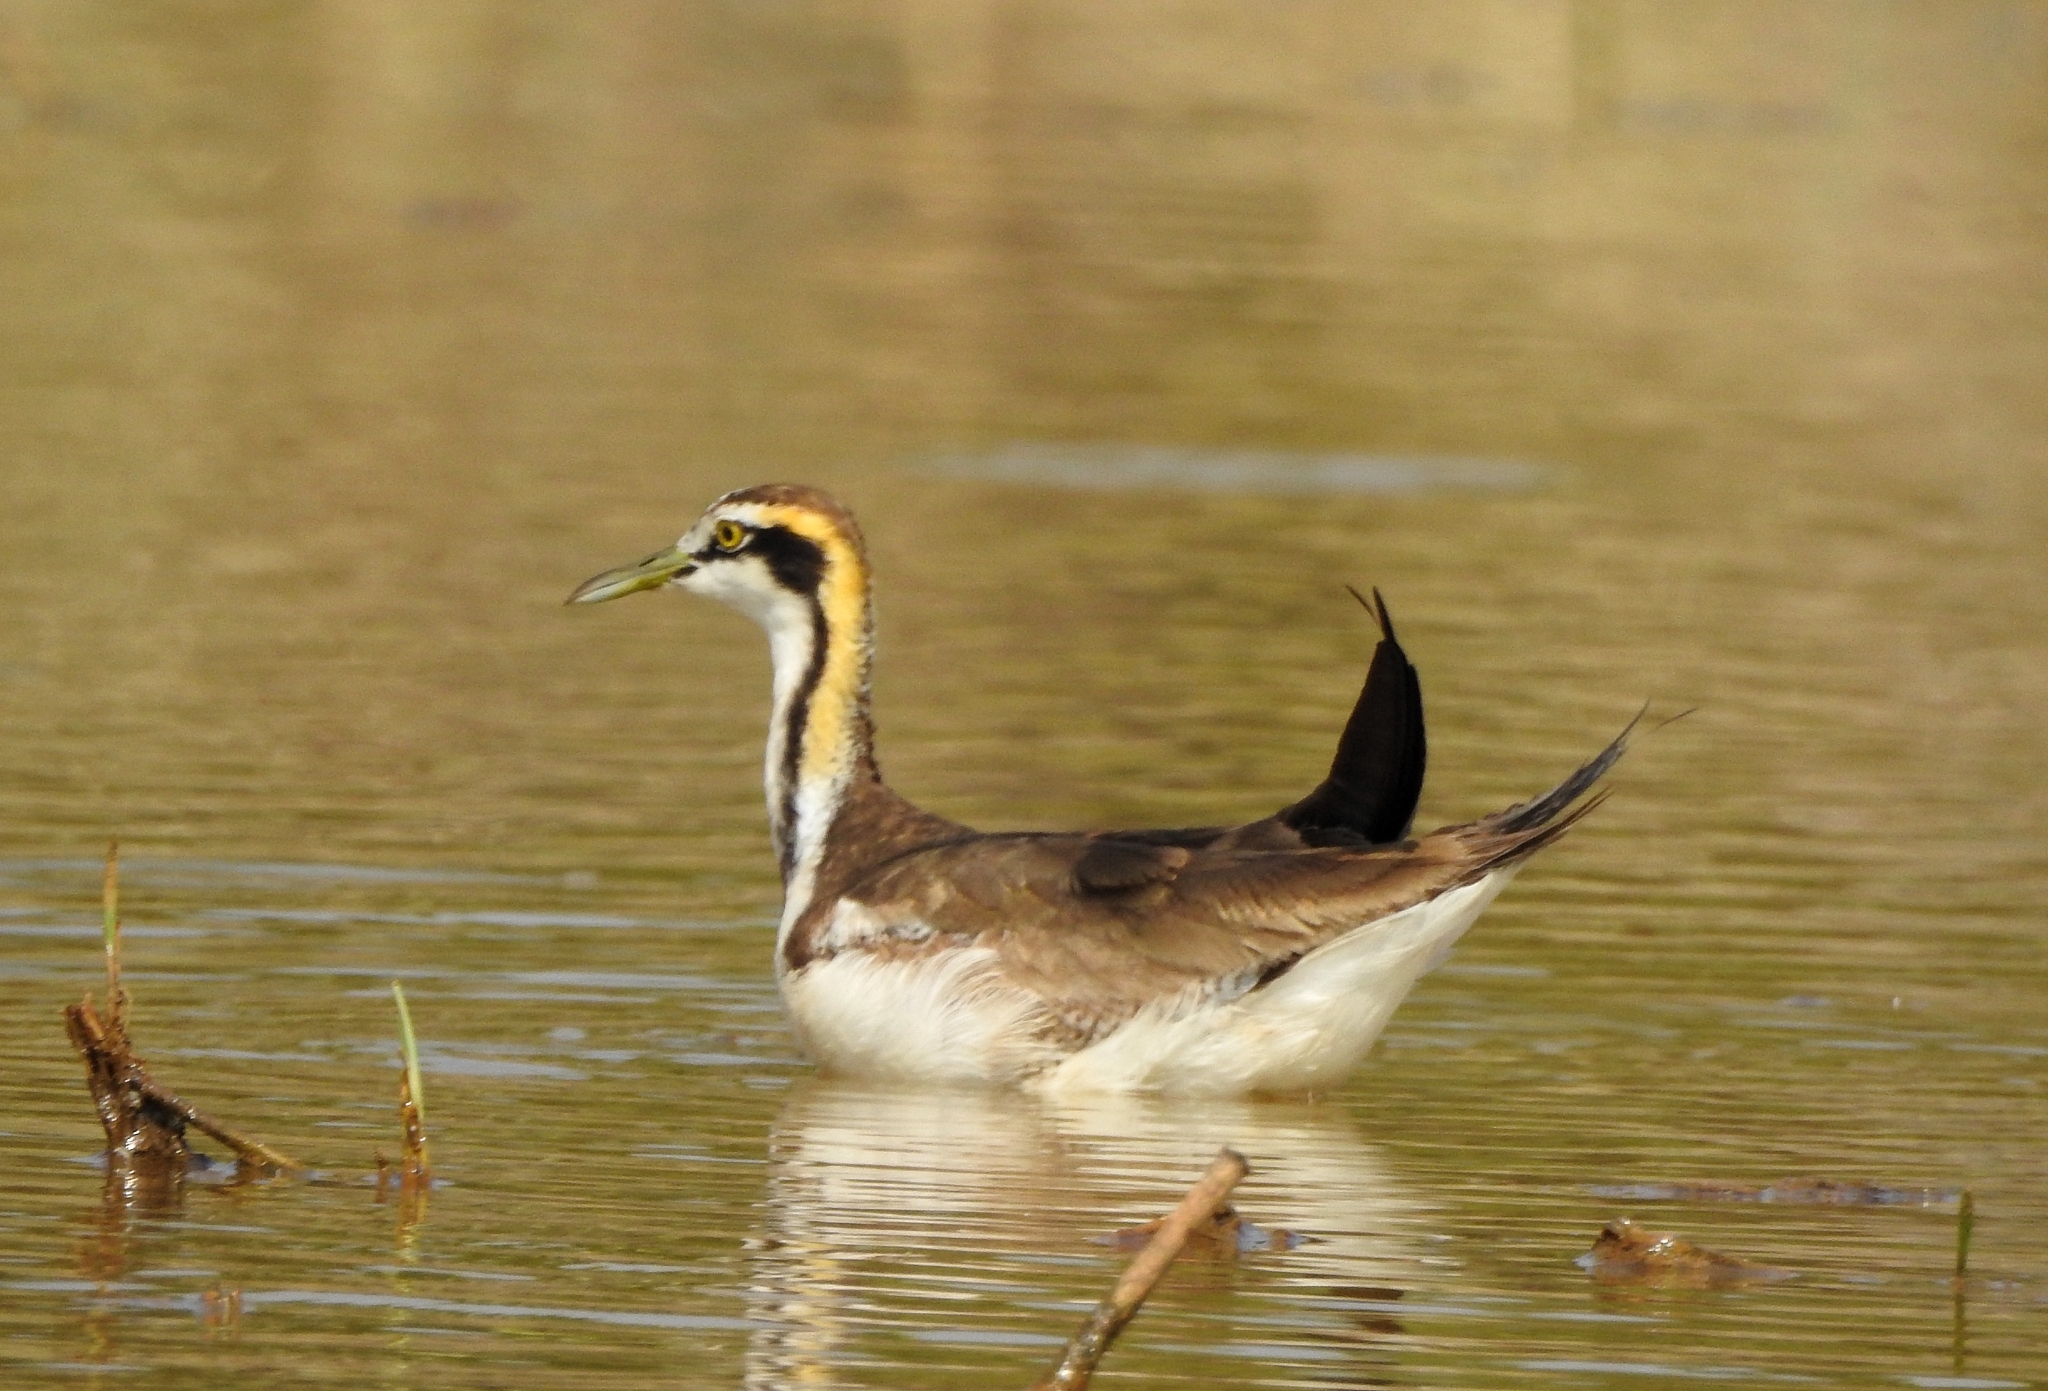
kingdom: Animalia
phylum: Chordata
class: Aves
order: Charadriiformes
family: Jacanidae
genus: Hydrophasianus
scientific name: Hydrophasianus chirurgus
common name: Pheasant-tailed jacana
